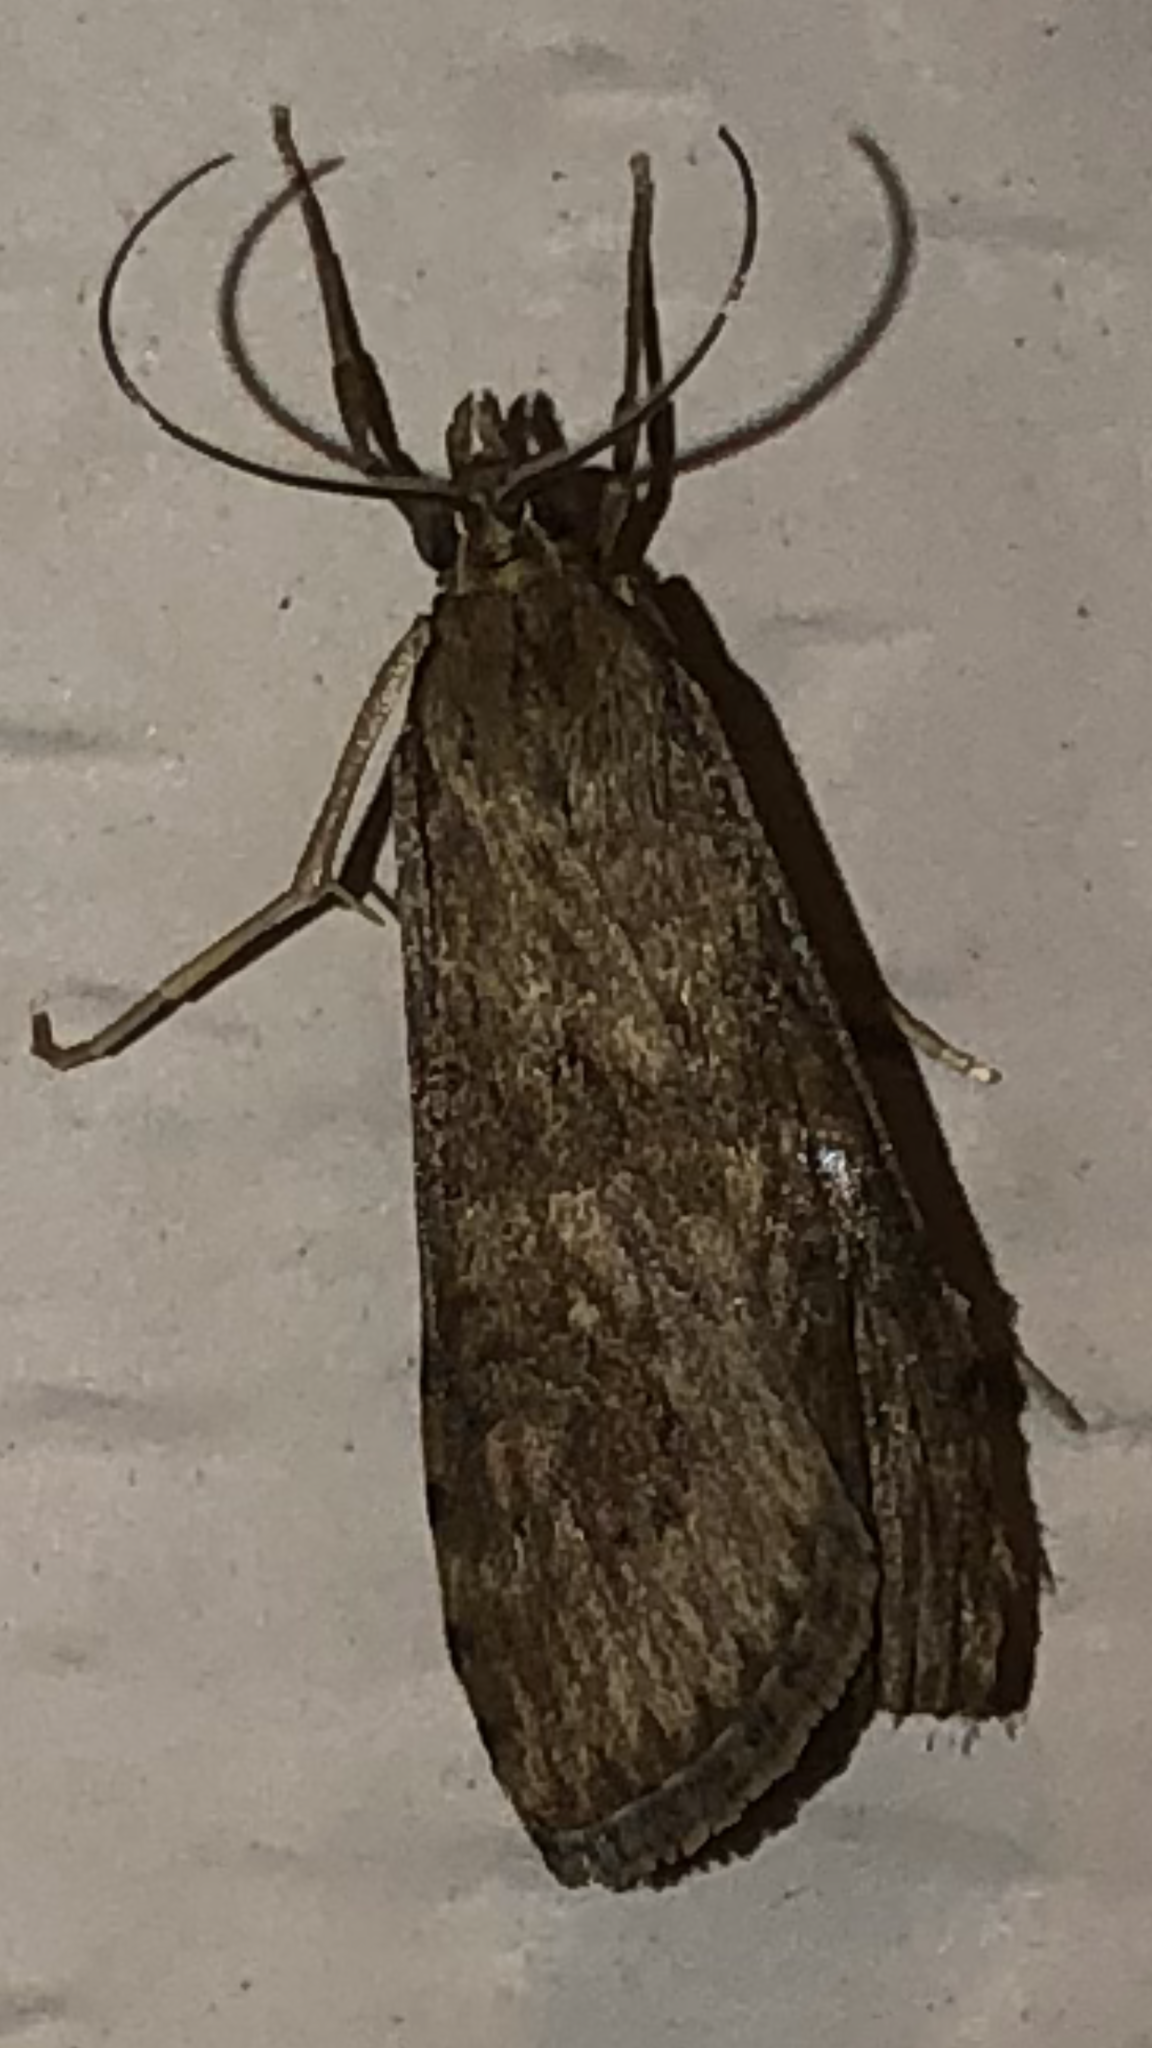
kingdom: Animalia
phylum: Arthropoda
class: Insecta
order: Lepidoptera
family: Crambidae
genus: Nomophila
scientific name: Nomophila nearctica
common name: American rush veneer
